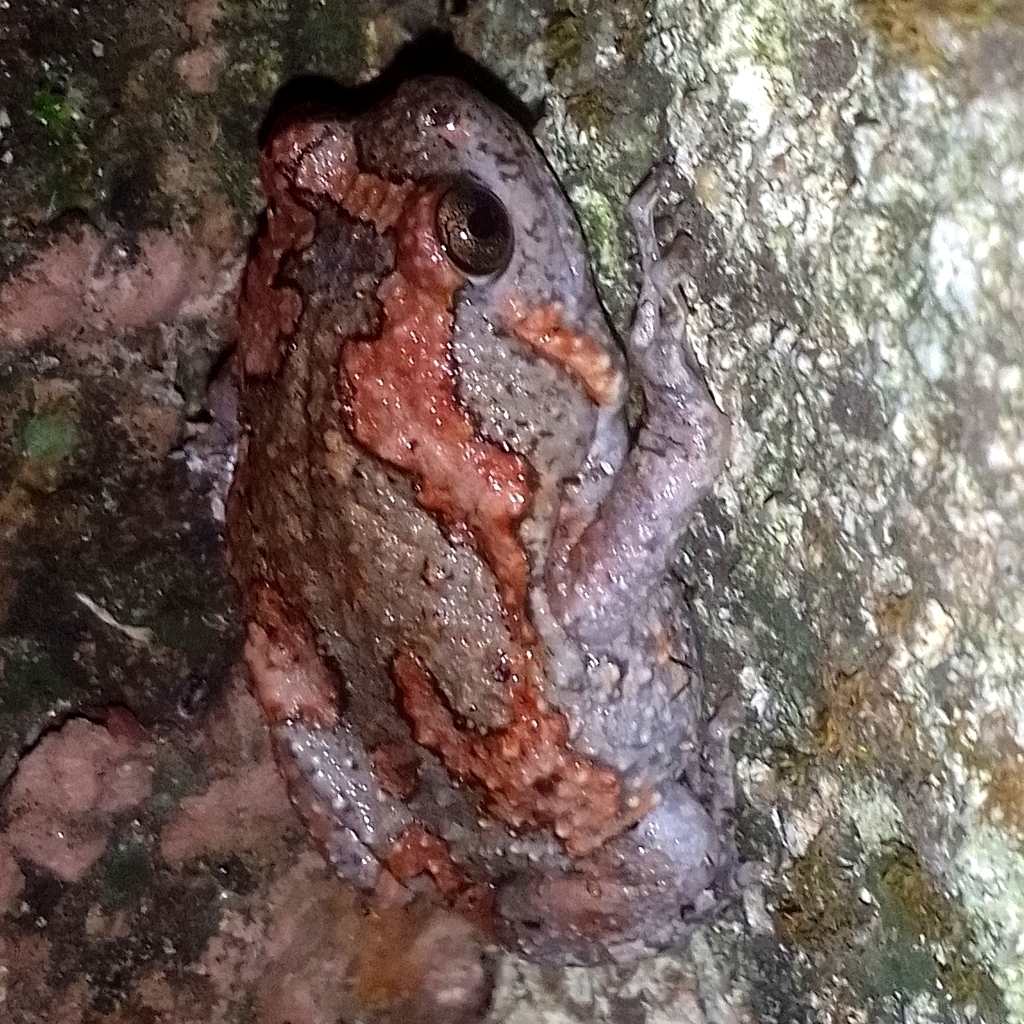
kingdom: Animalia
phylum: Chordata
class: Amphibia
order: Anura
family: Microhylidae
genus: Uperodon
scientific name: Uperodon taprobanicus
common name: Ceylon kaloula
